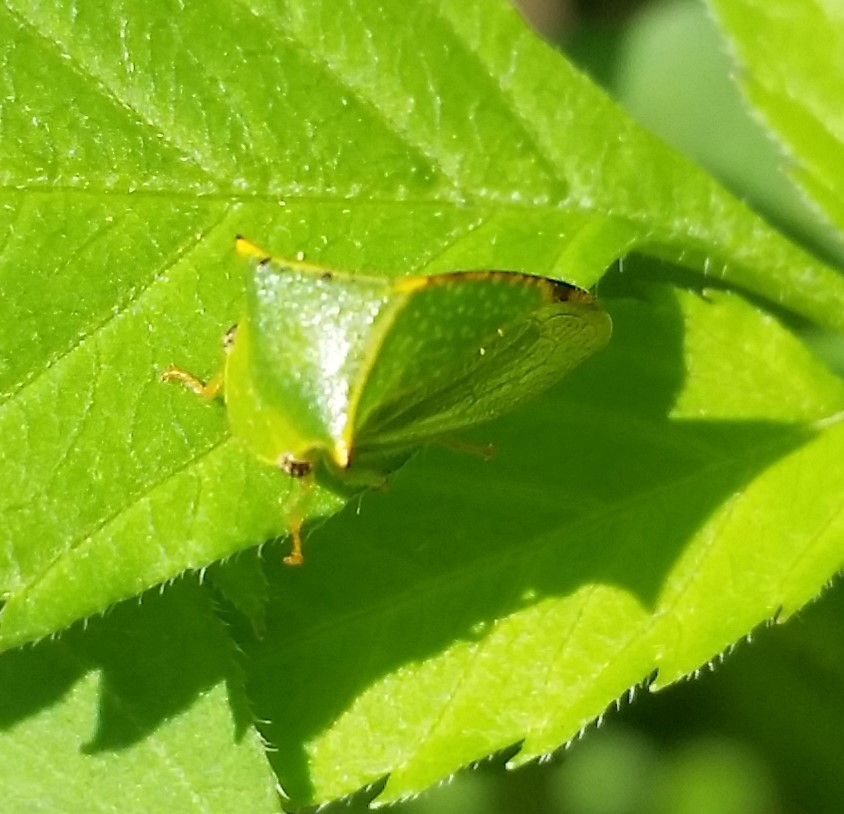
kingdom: Animalia
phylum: Arthropoda
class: Insecta
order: Hemiptera
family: Membracidae
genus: Stictocephala
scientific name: Stictocephala bisonia
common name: American buffalo treehopper
